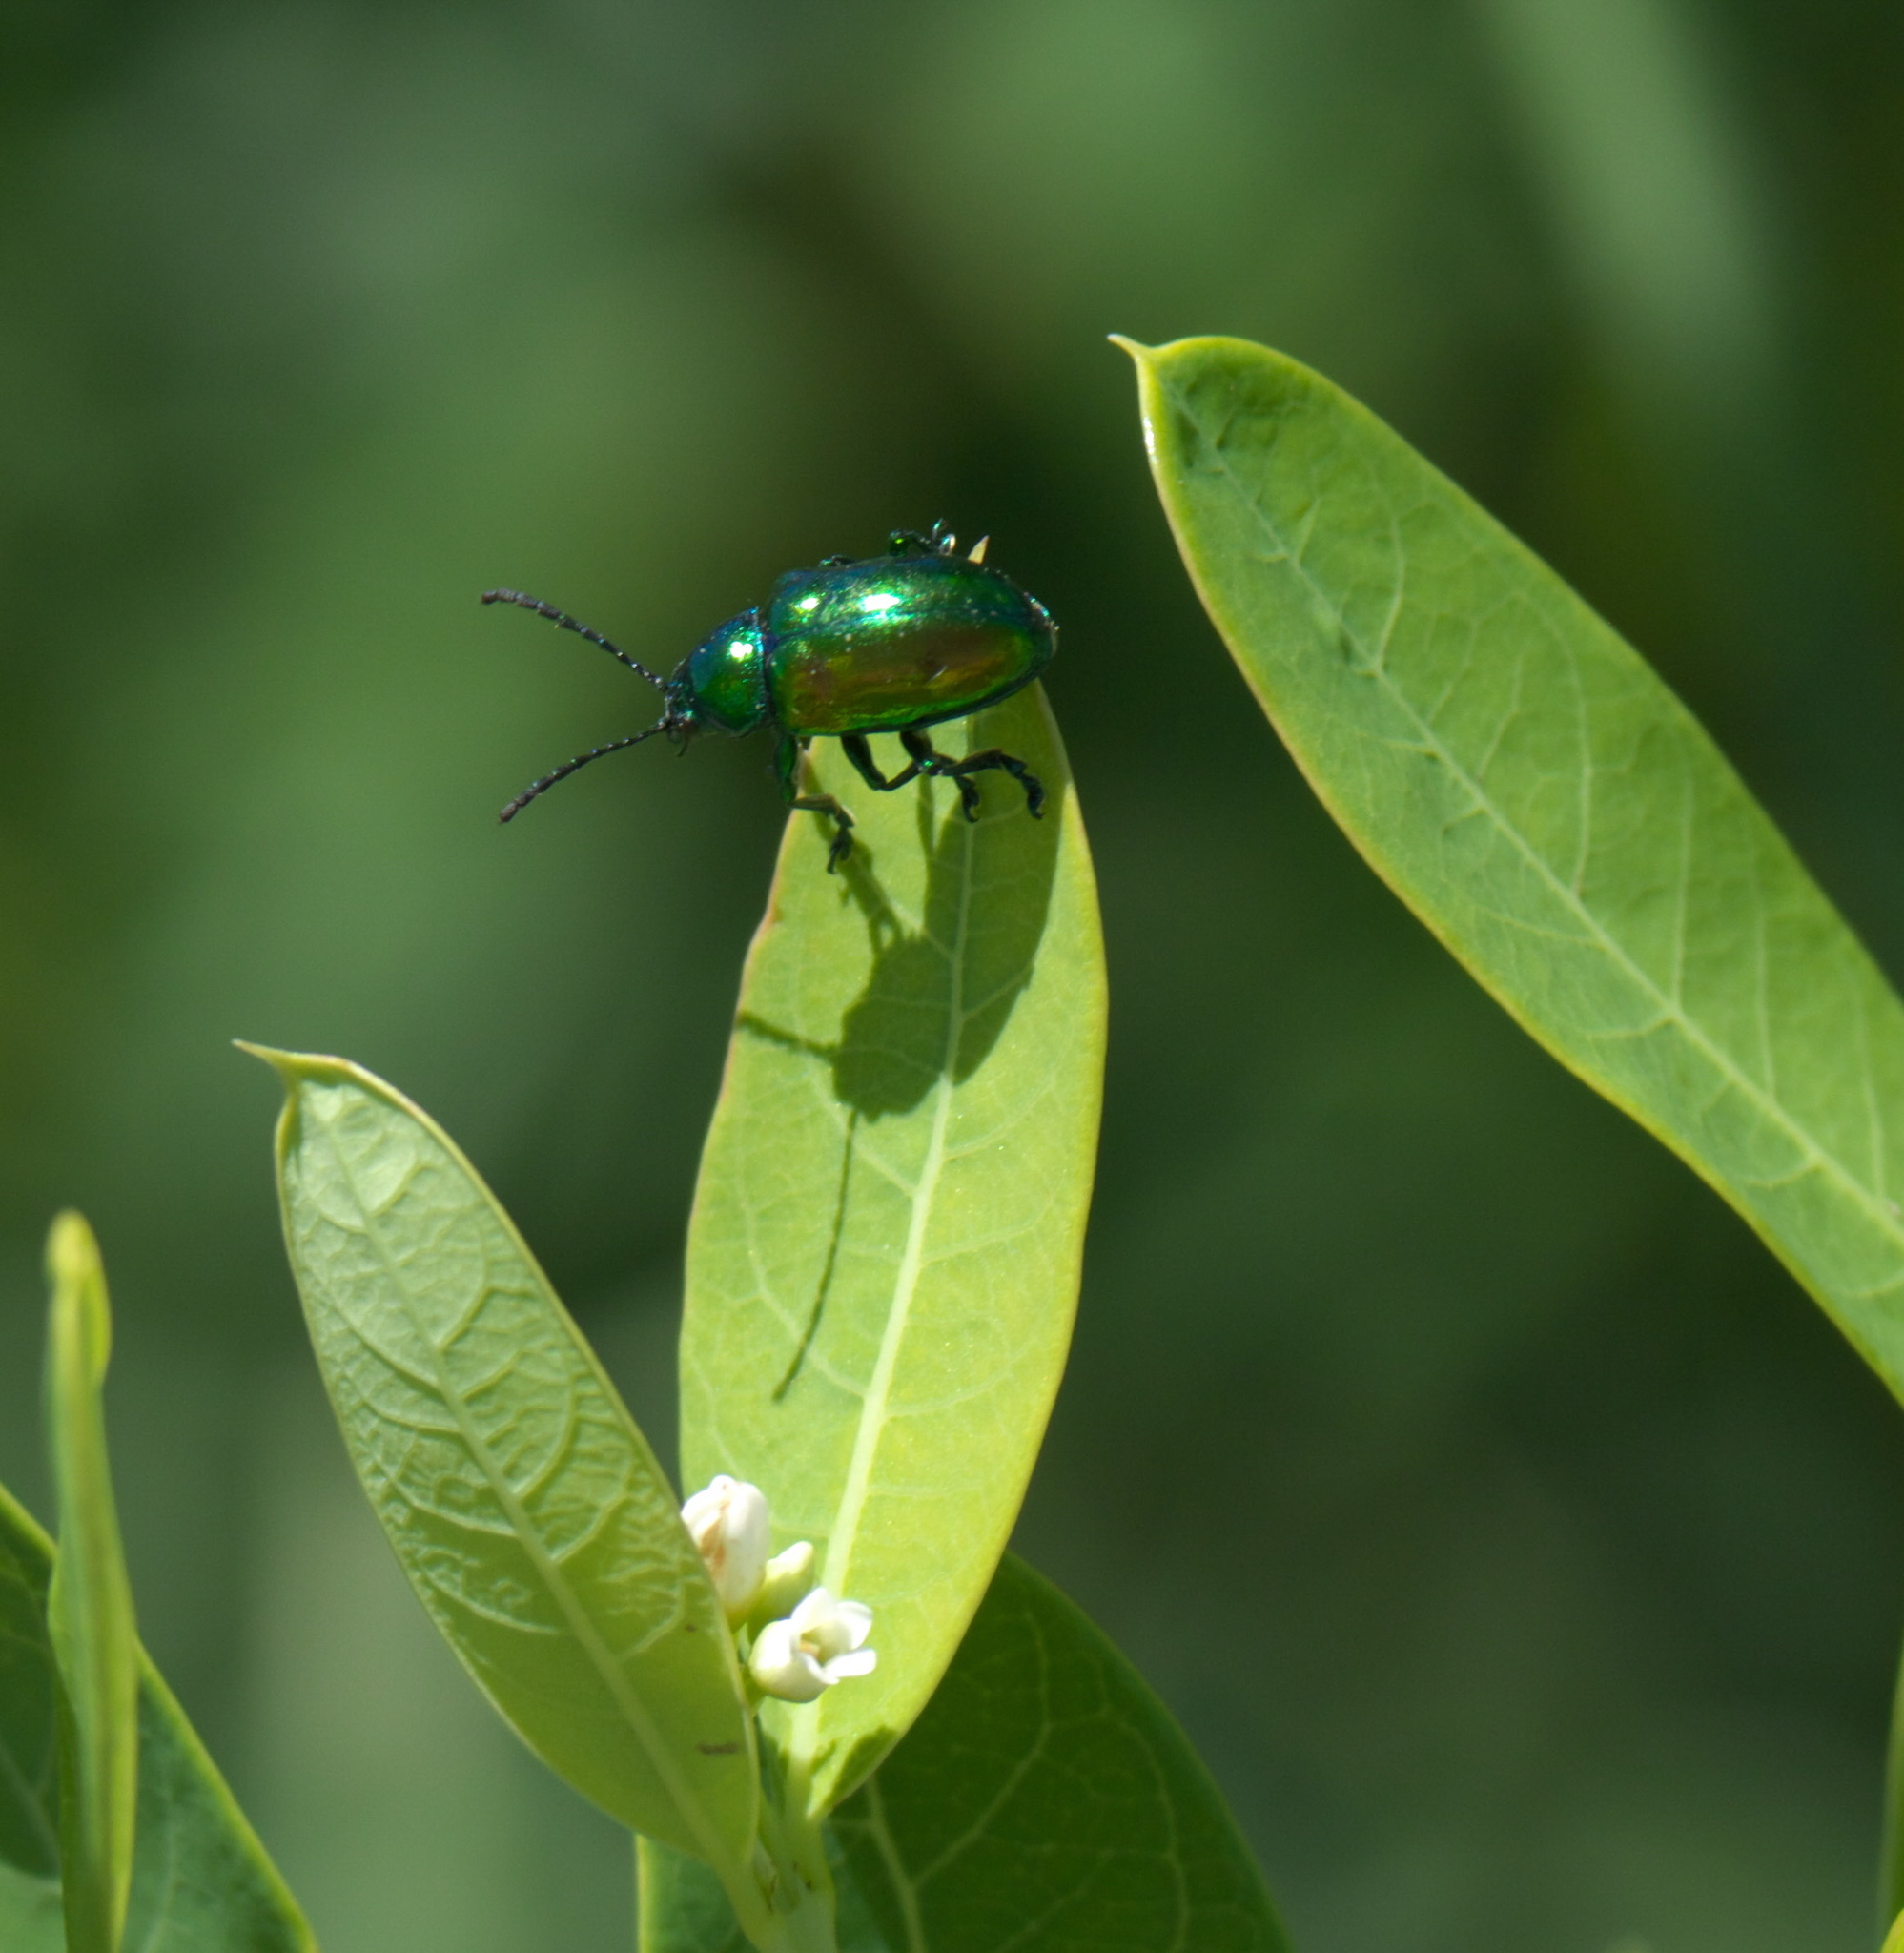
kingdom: Animalia
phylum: Arthropoda
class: Insecta
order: Coleoptera
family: Chrysomelidae
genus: Chrysochus
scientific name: Chrysochus auratus
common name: Dogbane leaf beetle
